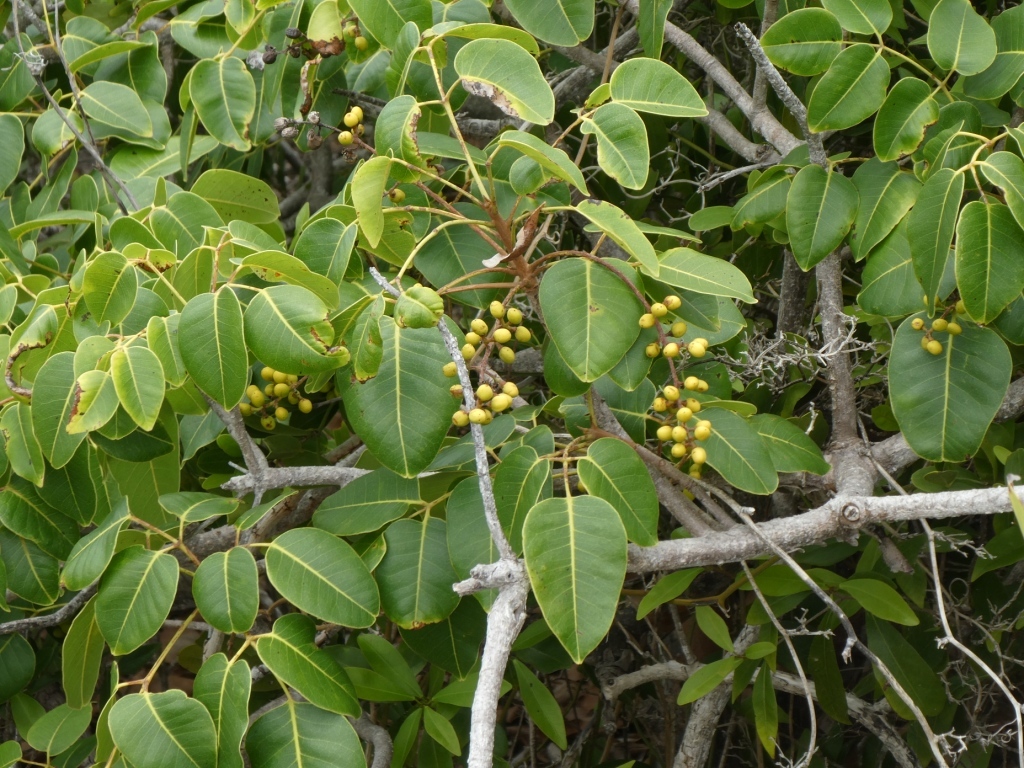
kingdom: Plantae
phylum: Tracheophyta
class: Magnoliopsida
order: Sapindales
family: Anacardiaceae
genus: Metopium
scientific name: Metopium toxiferum
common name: Florida poisontree
